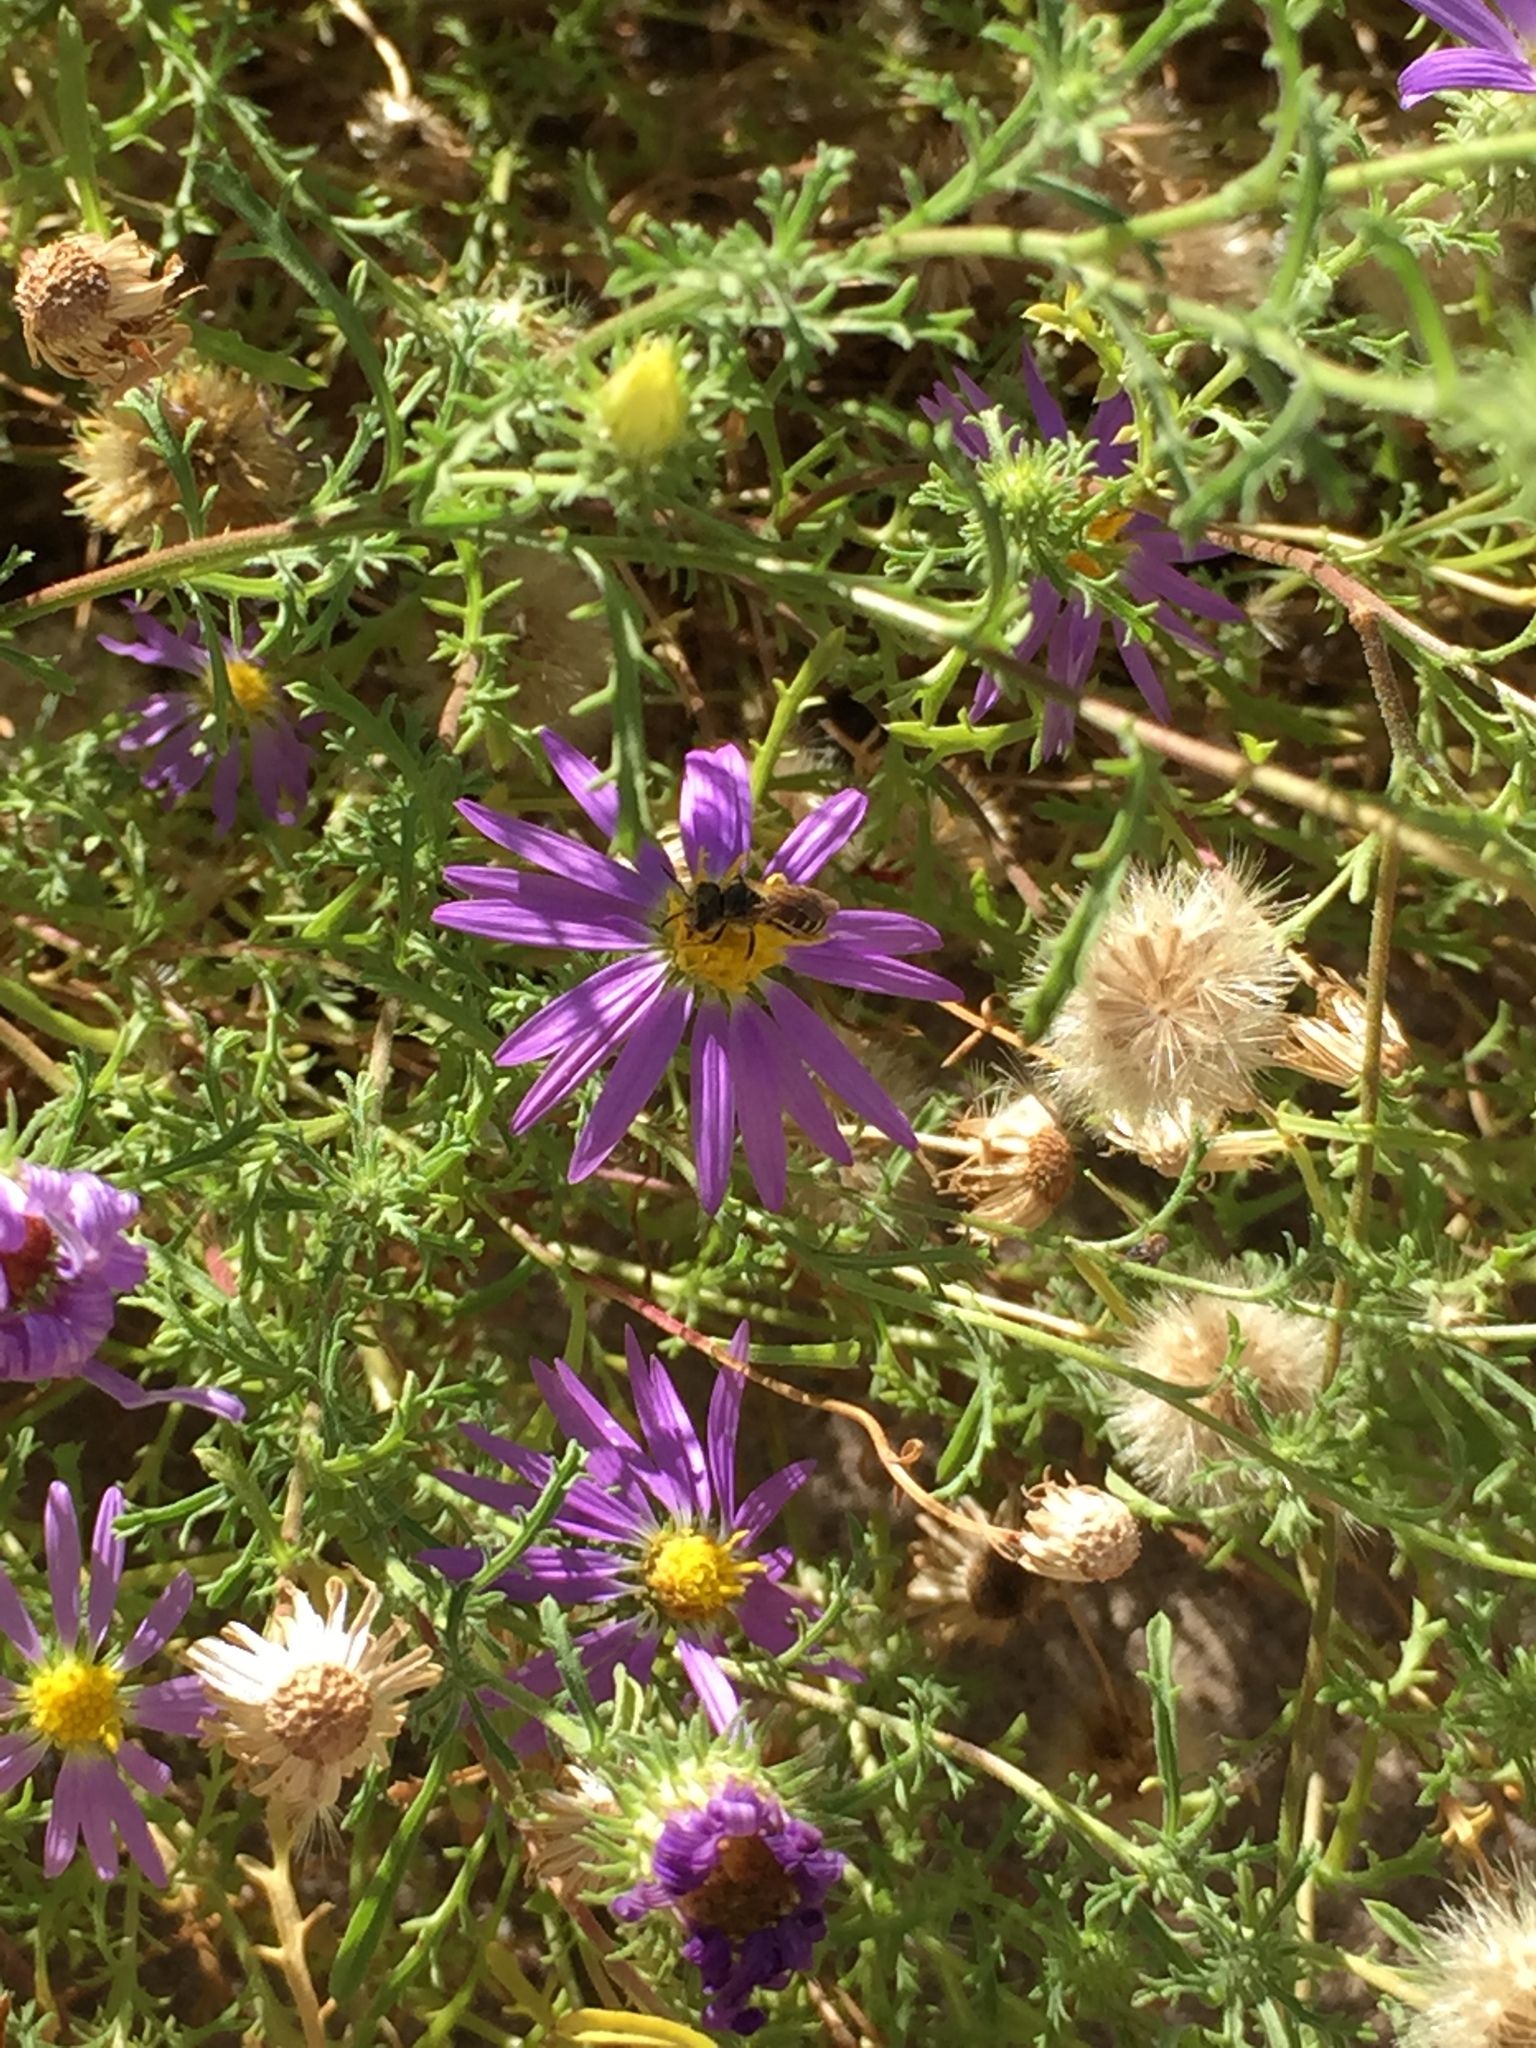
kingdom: Animalia
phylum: Arthropoda
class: Insecta
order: Hymenoptera
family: Halictidae
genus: Halictus
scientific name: Halictus ligatus
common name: Ligated furrow bee
